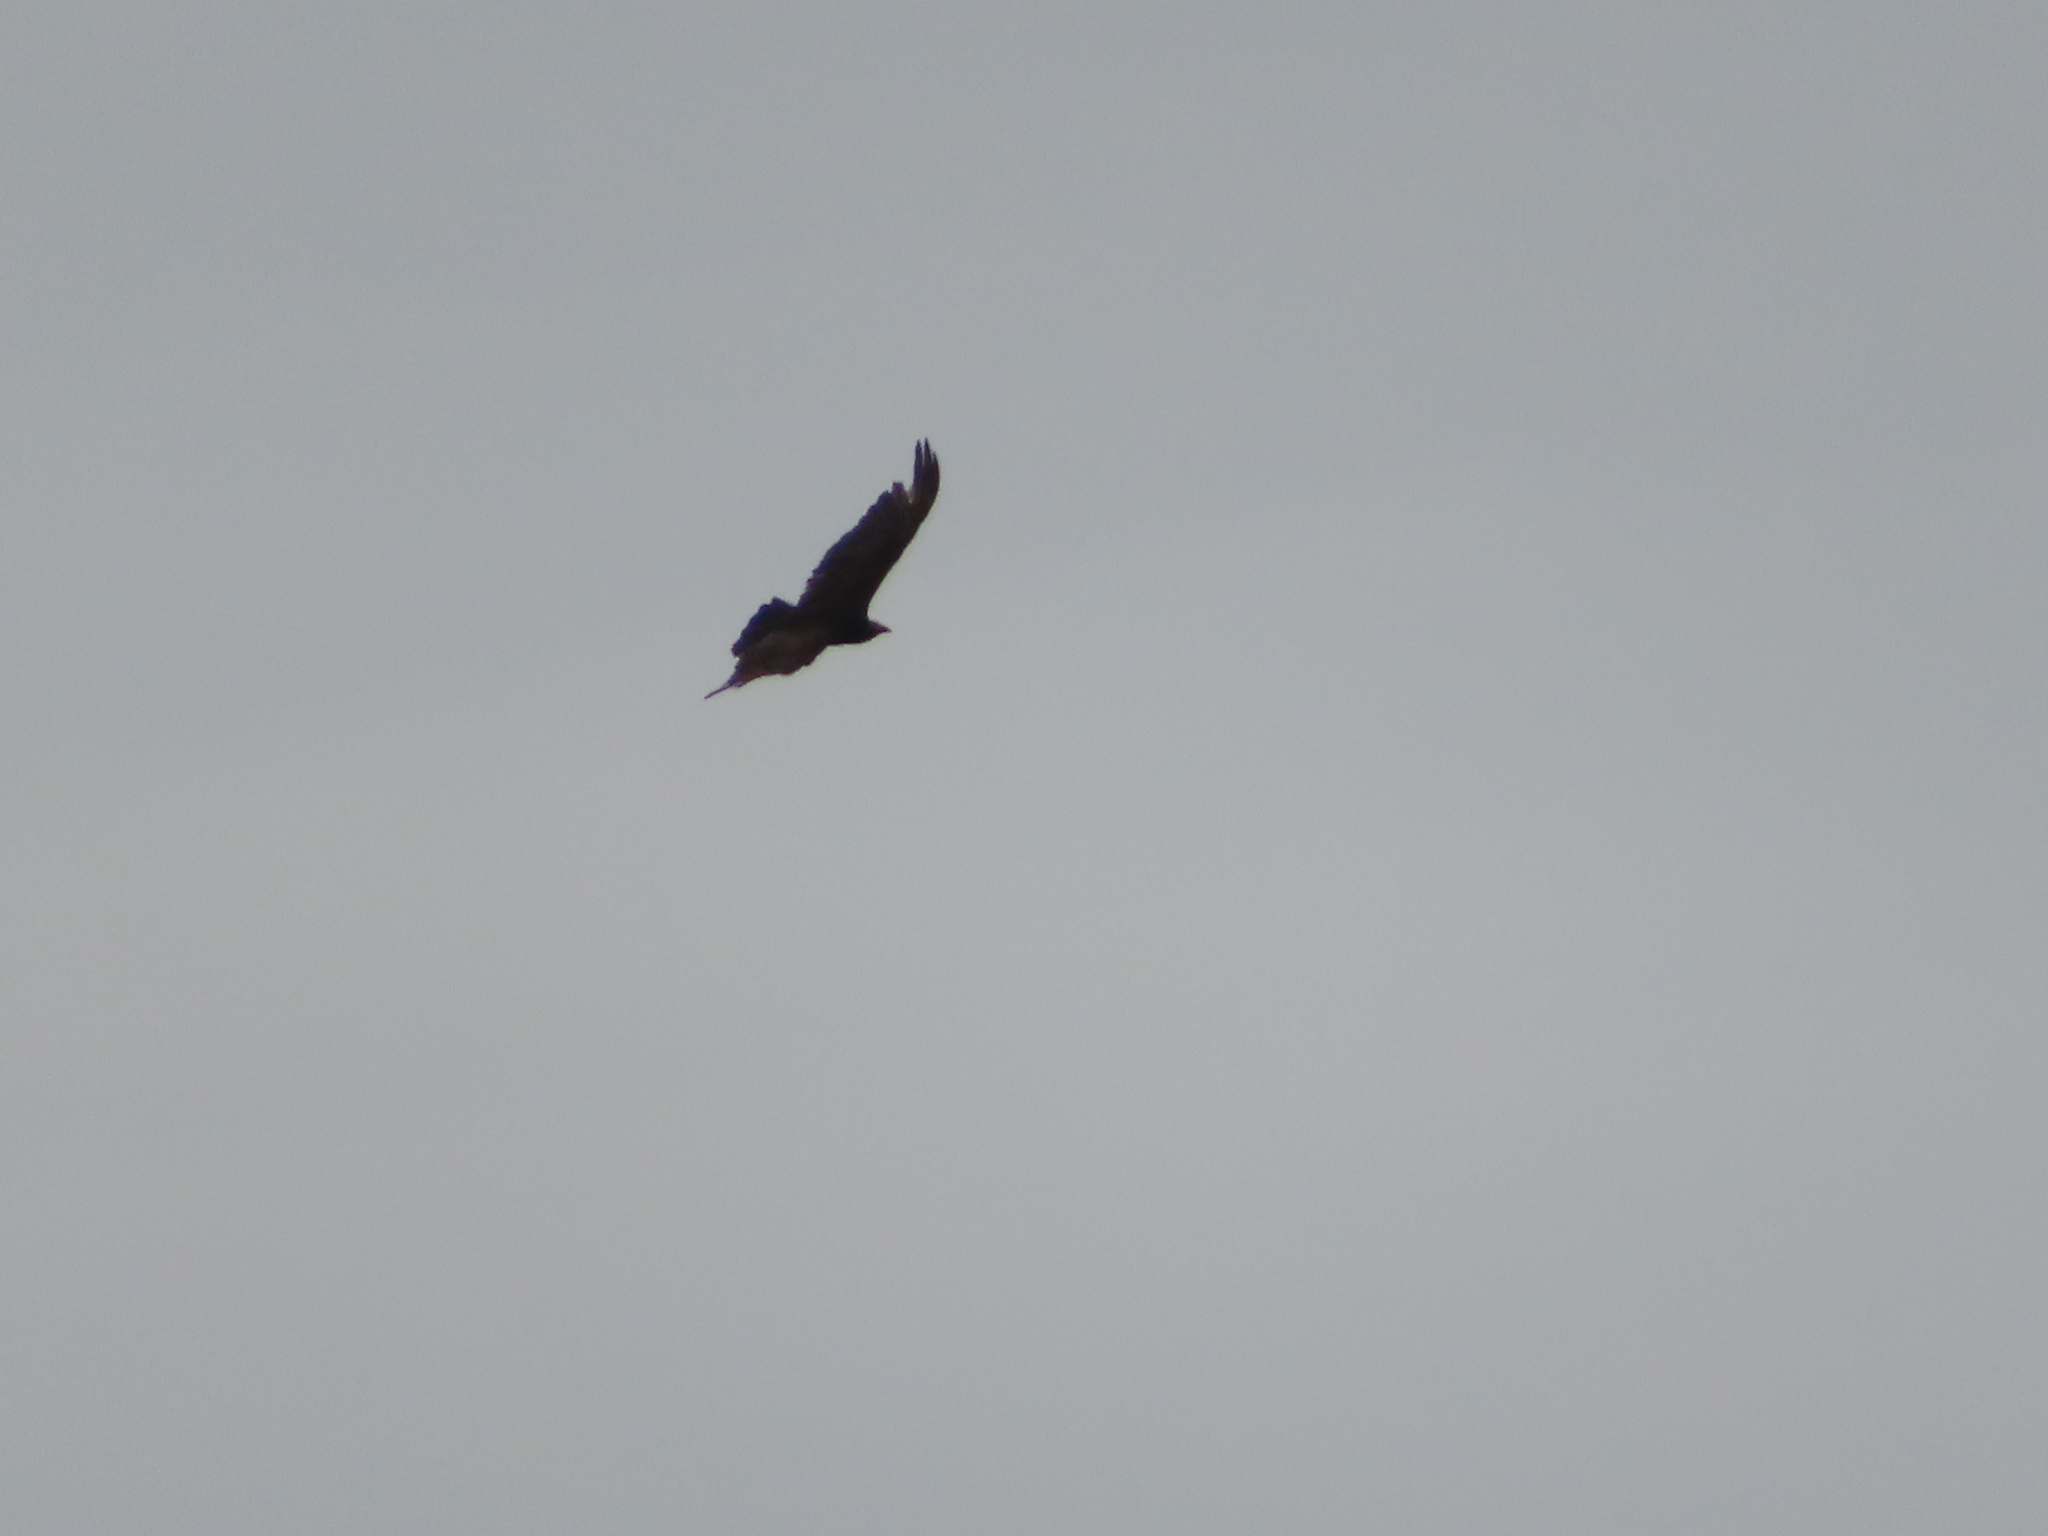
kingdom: Animalia
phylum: Chordata
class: Aves
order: Accipitriformes
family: Cathartidae
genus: Cathartes
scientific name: Cathartes aura
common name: Turkey vulture
